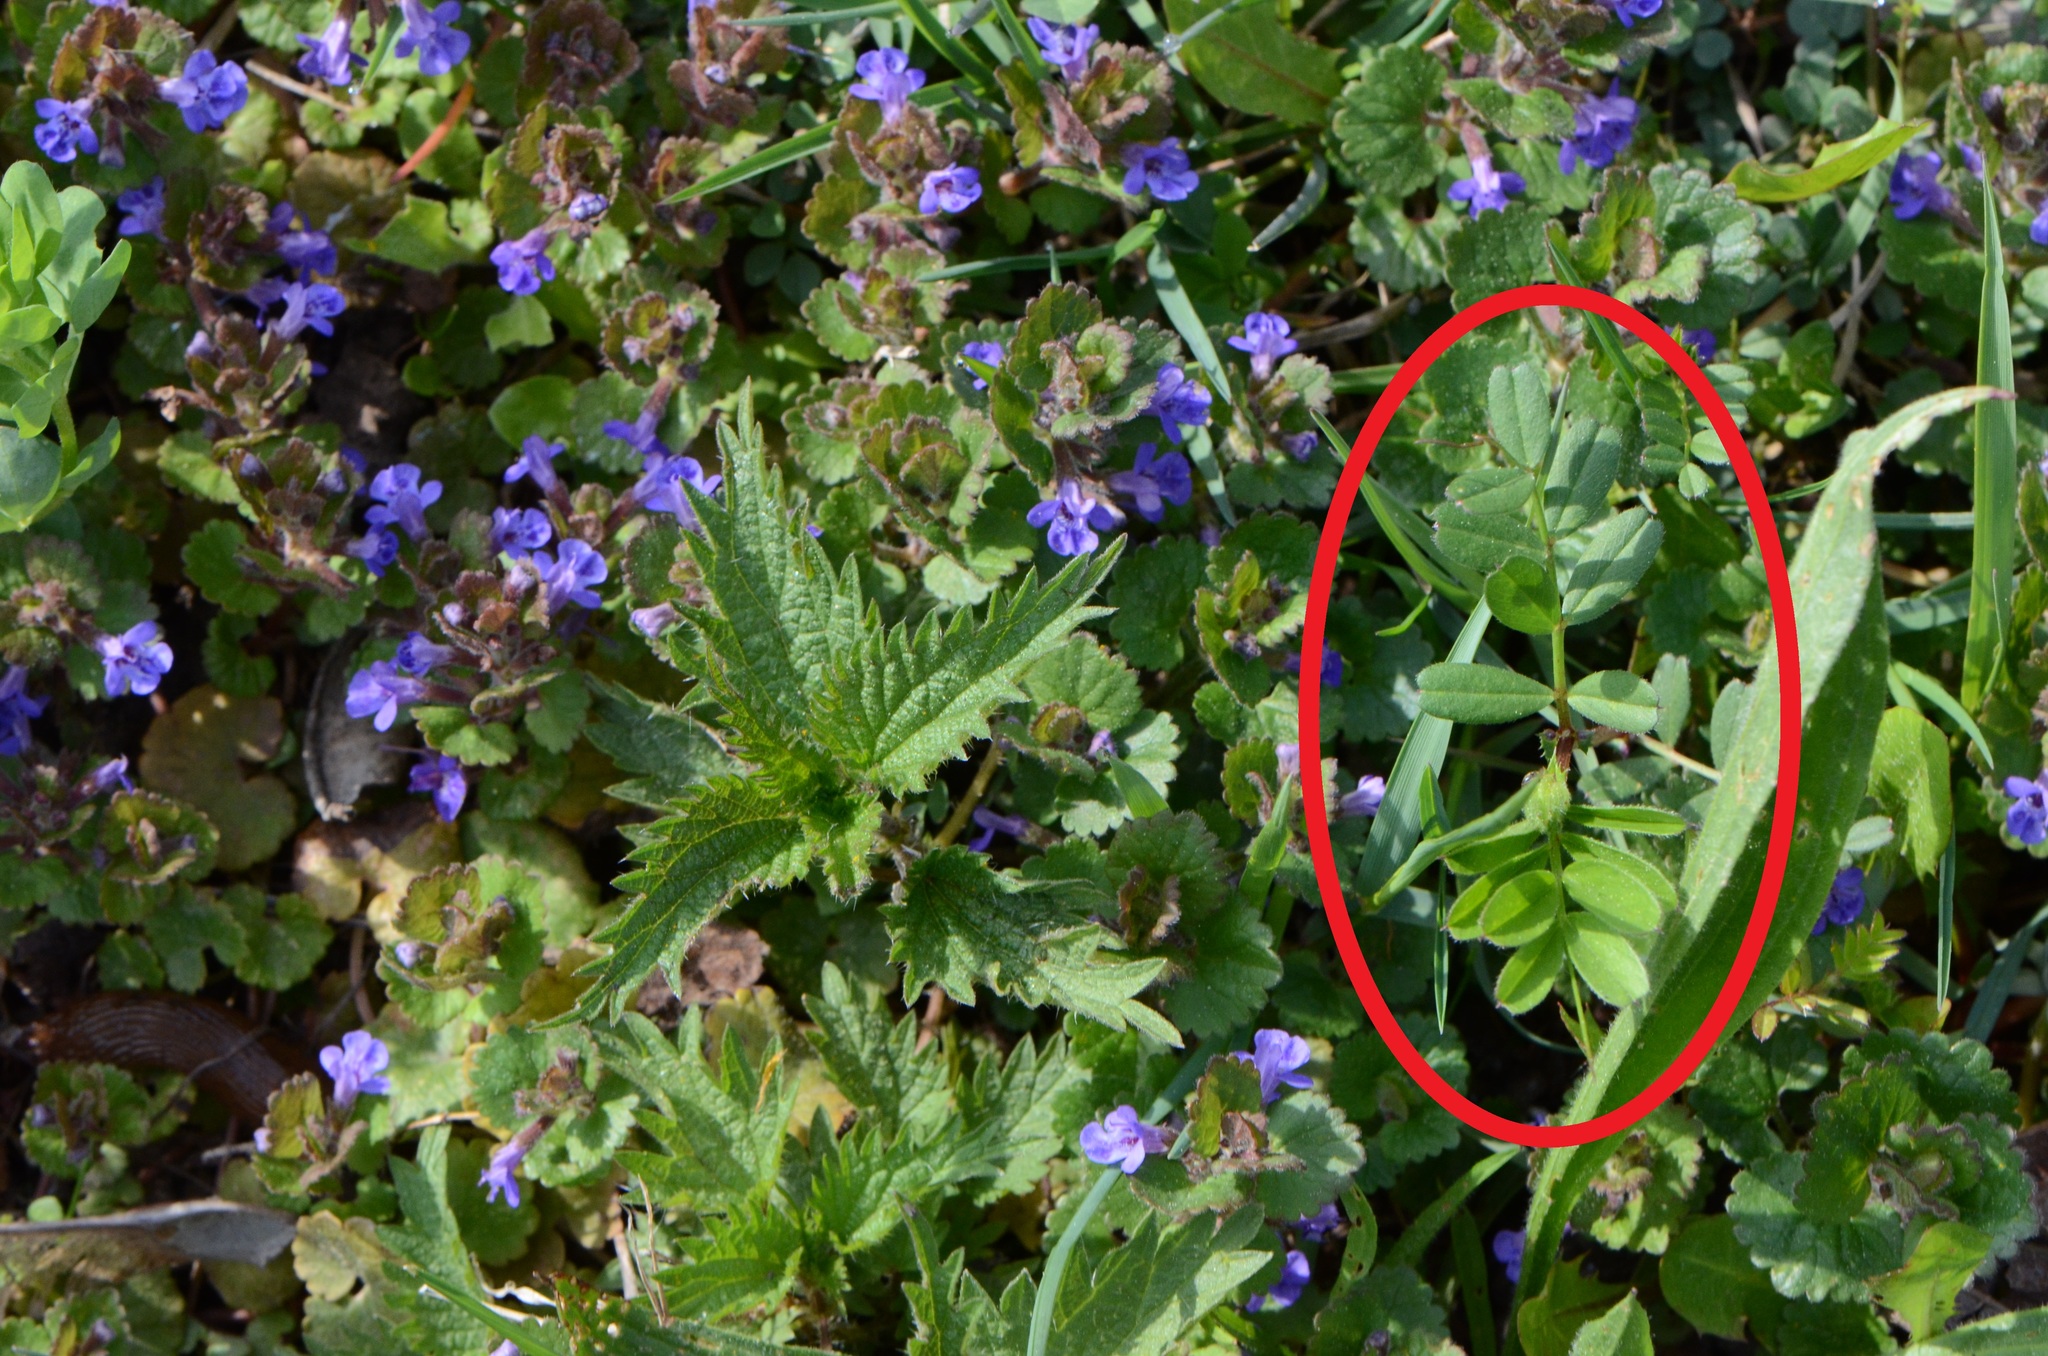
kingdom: Plantae
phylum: Tracheophyta
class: Magnoliopsida
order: Fabales
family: Fabaceae
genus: Vicia
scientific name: Vicia sepium
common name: Bush vetch
